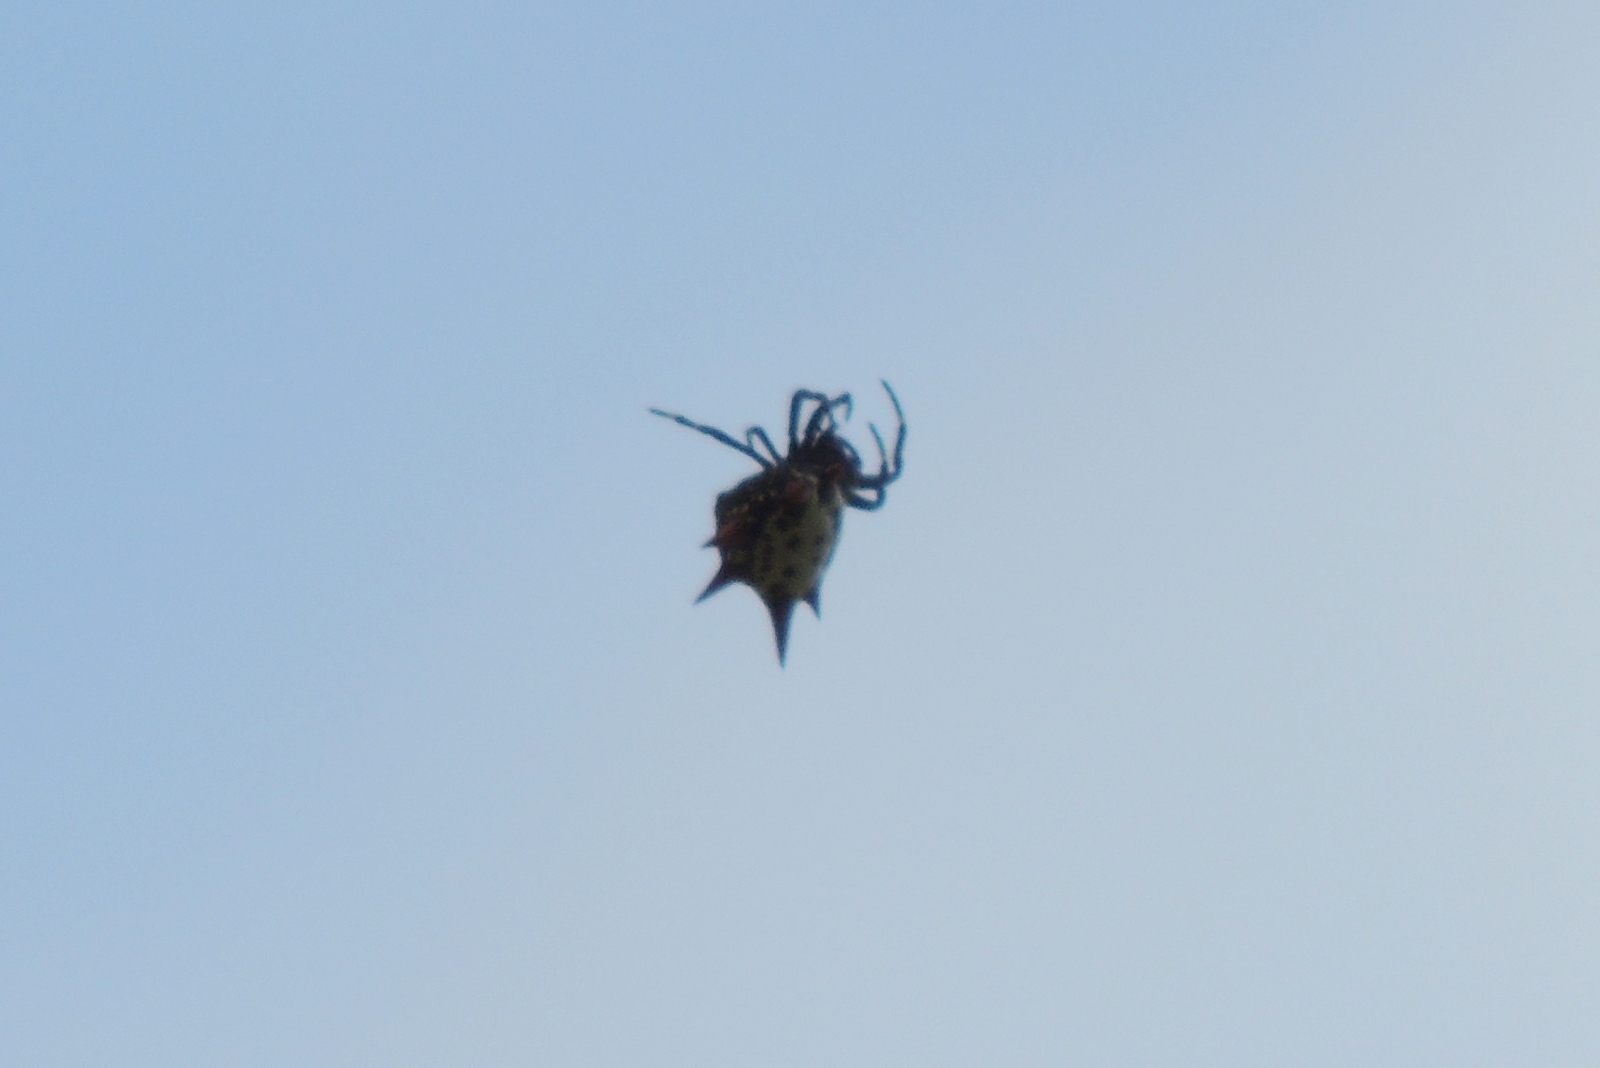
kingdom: Animalia
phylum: Arthropoda
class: Arachnida
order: Araneae
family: Araneidae
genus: Gasteracantha
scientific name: Gasteracantha cancriformis
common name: Orb weavers
